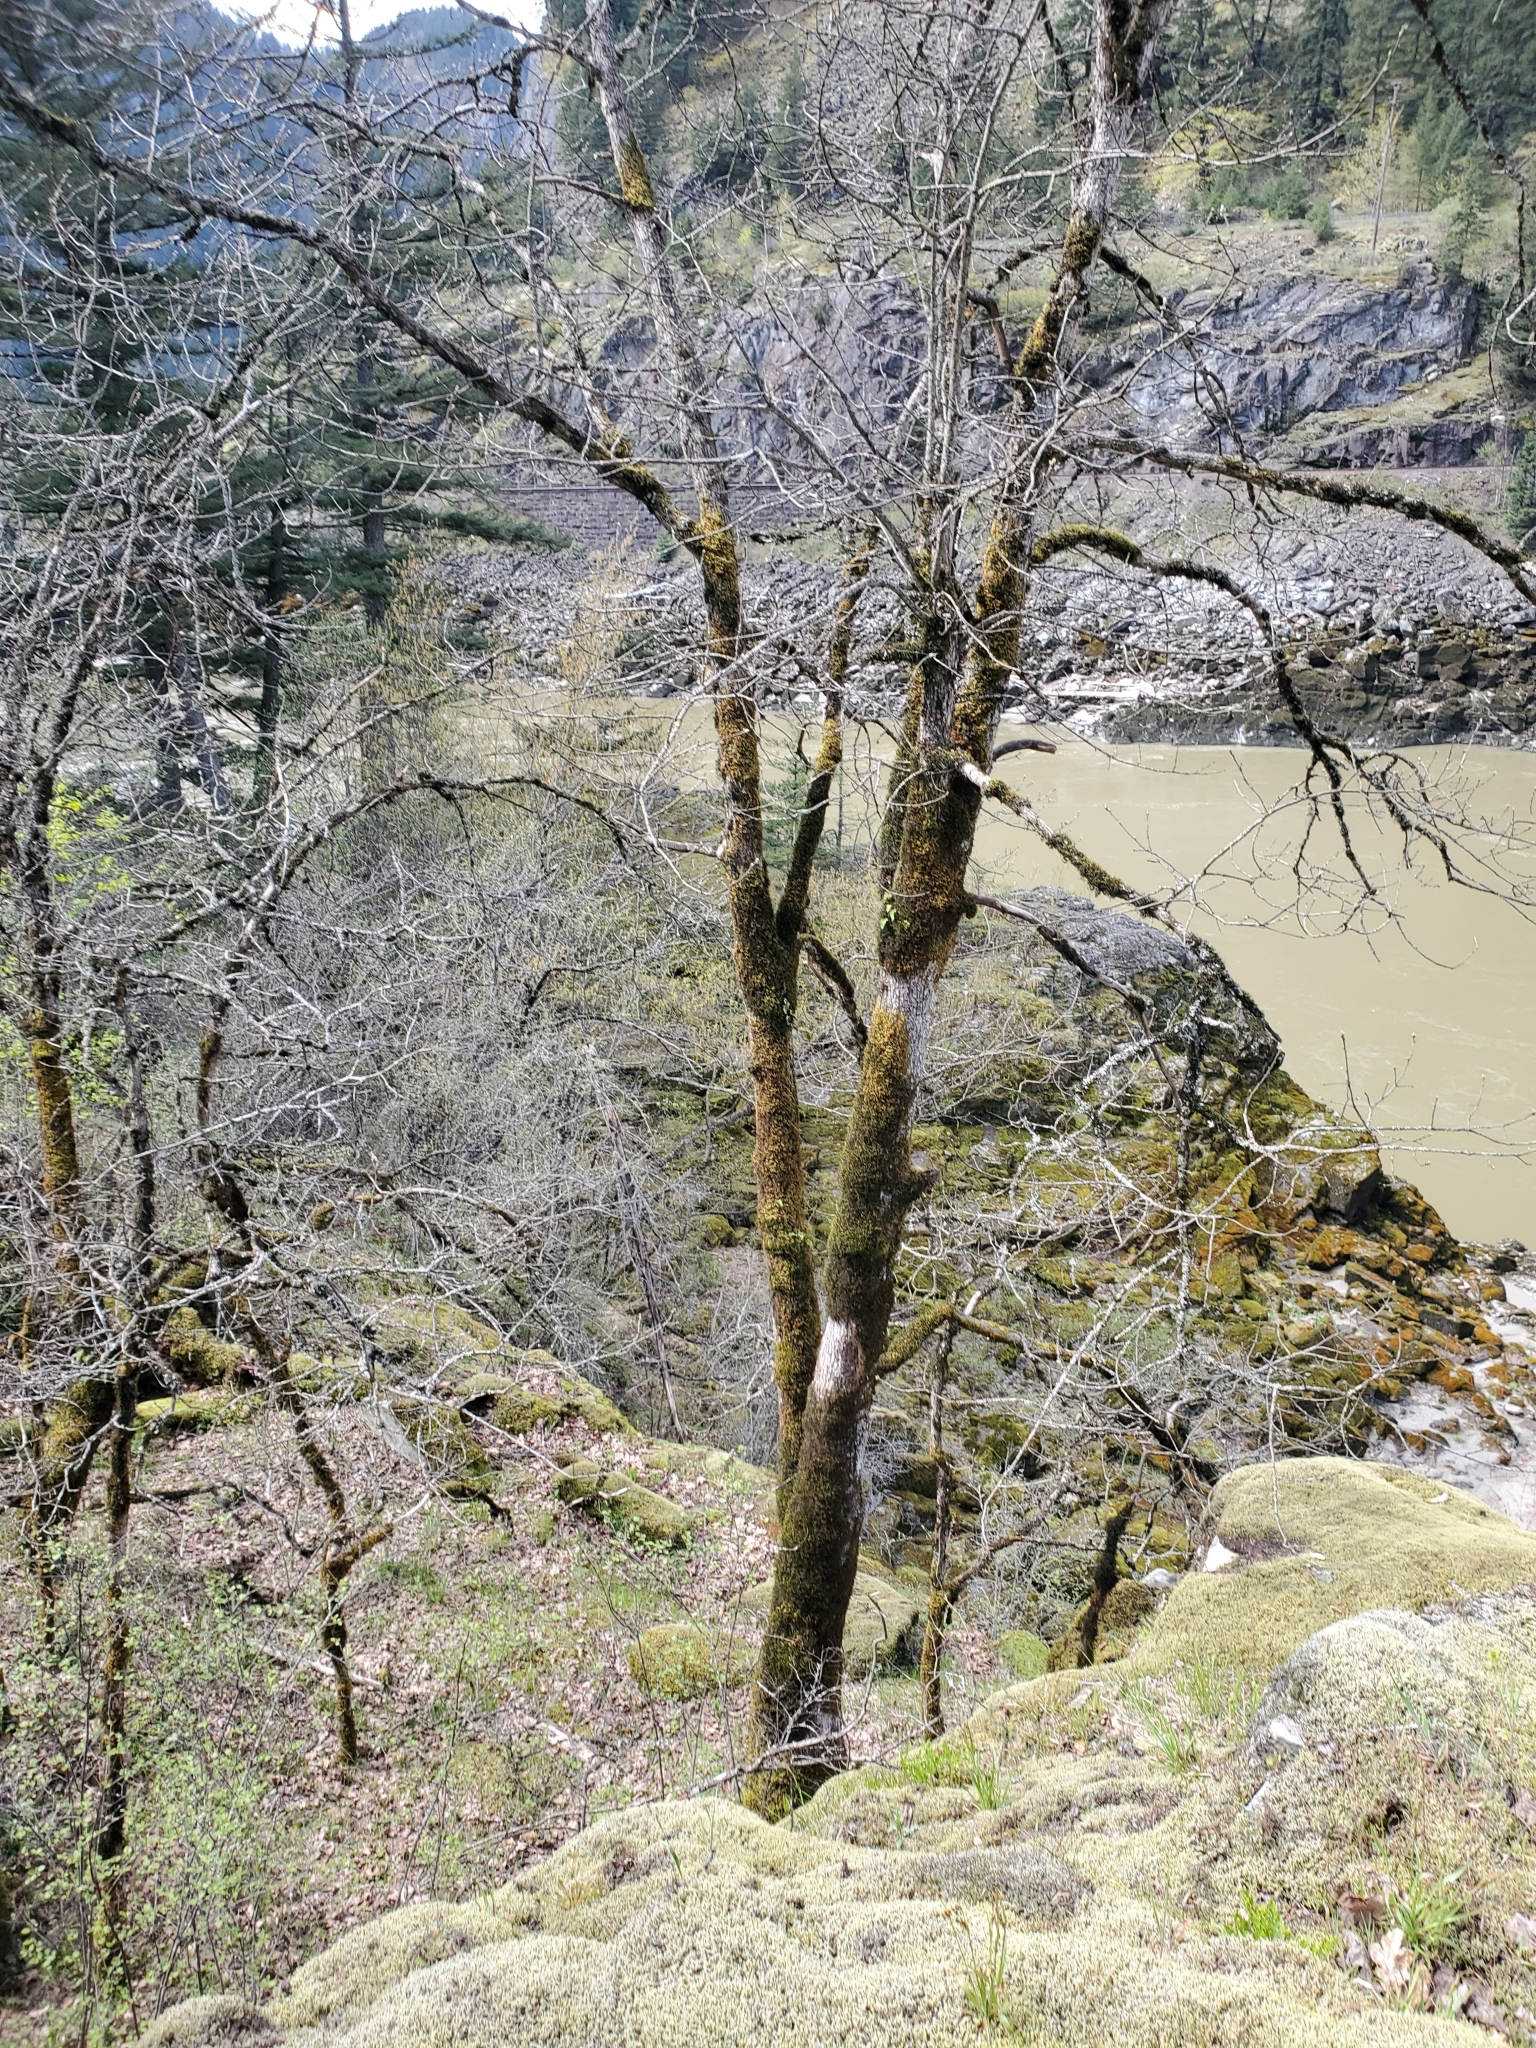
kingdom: Plantae
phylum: Tracheophyta
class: Magnoliopsida
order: Fagales
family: Fagaceae
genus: Quercus
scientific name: Quercus garryana
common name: Garry oak
